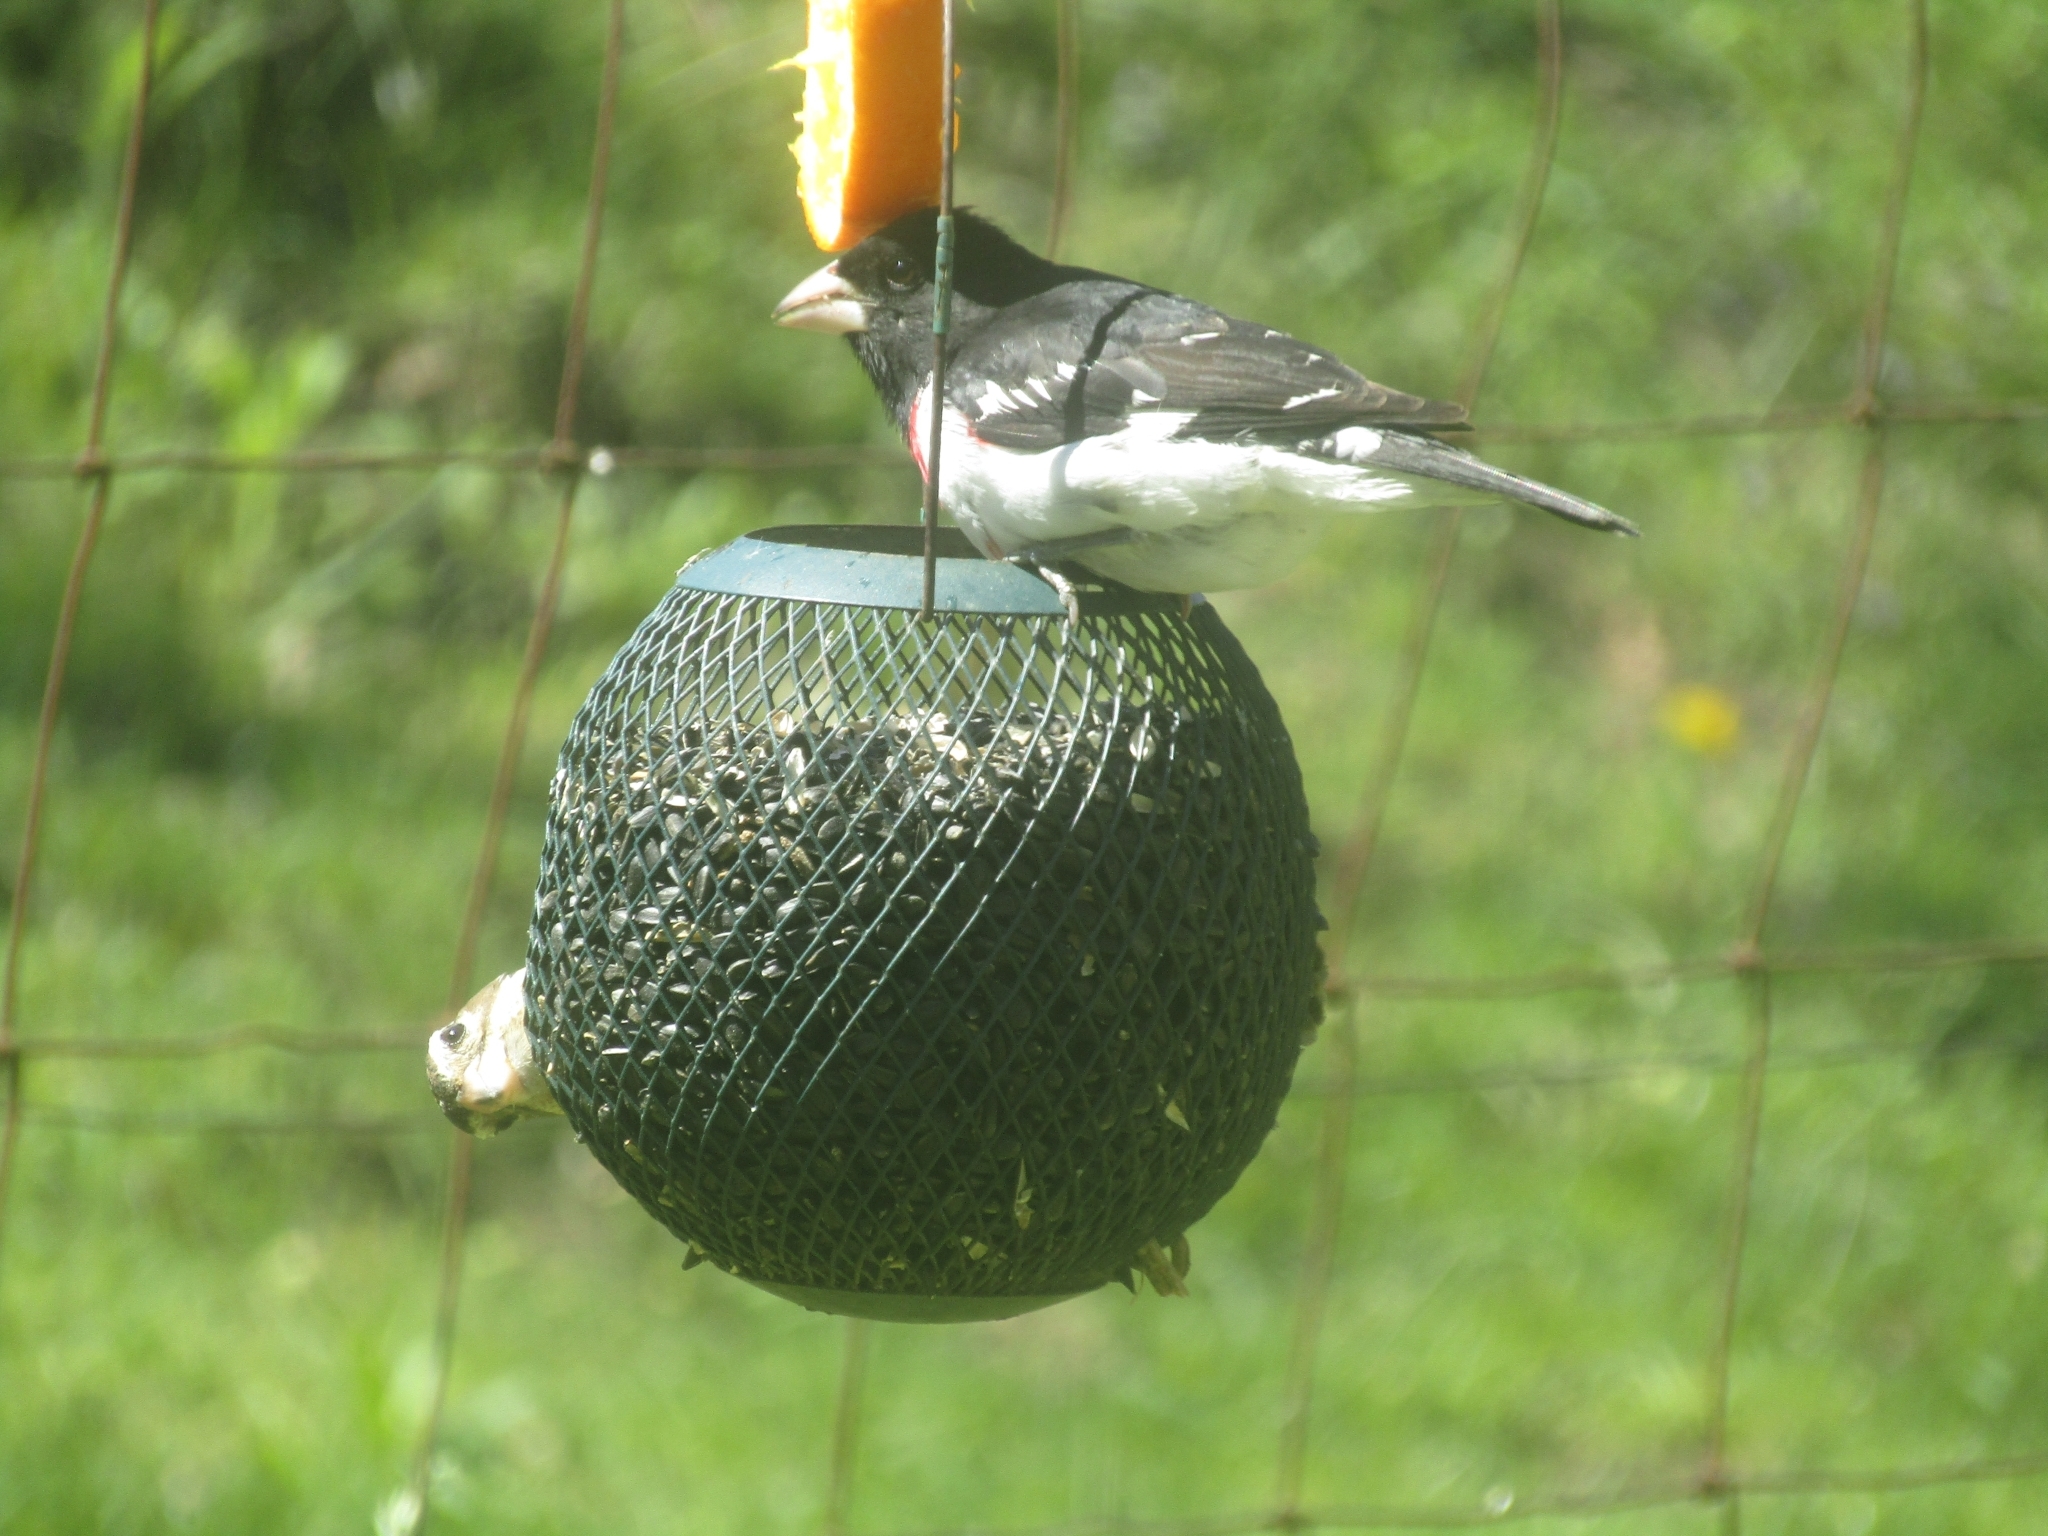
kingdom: Animalia
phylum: Chordata
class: Aves
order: Passeriformes
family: Cardinalidae
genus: Pheucticus
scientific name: Pheucticus ludovicianus
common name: Rose-breasted grosbeak
